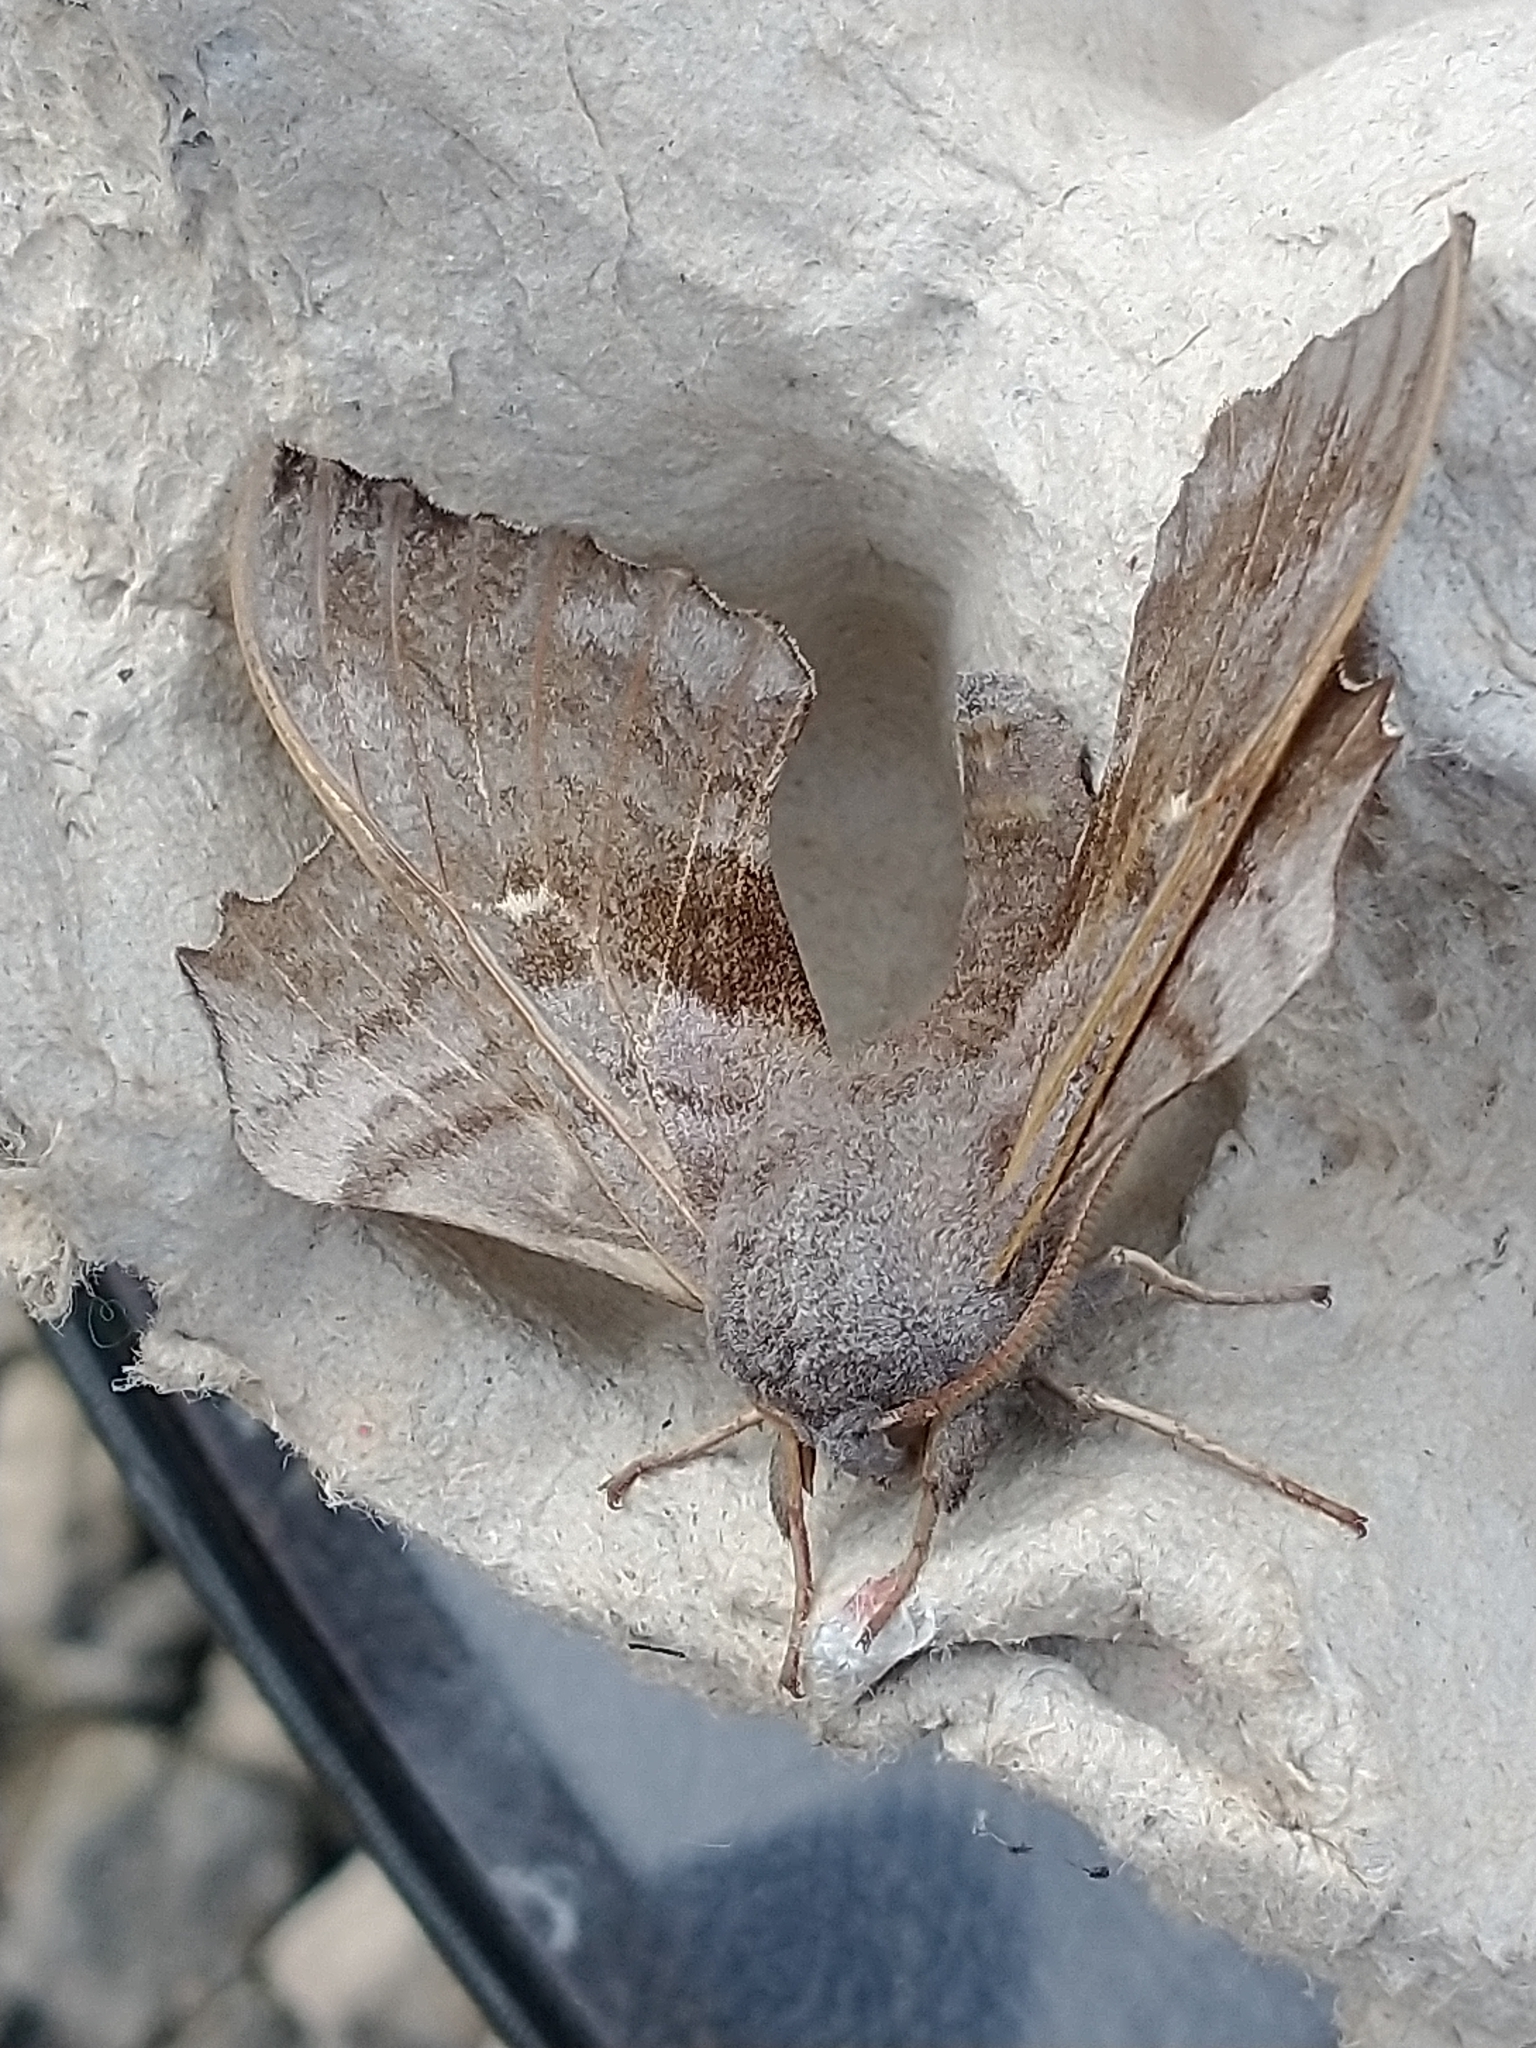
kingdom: Animalia
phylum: Arthropoda
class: Insecta
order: Lepidoptera
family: Sphingidae
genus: Laothoe
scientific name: Laothoe populi
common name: Poplar hawk-moth
